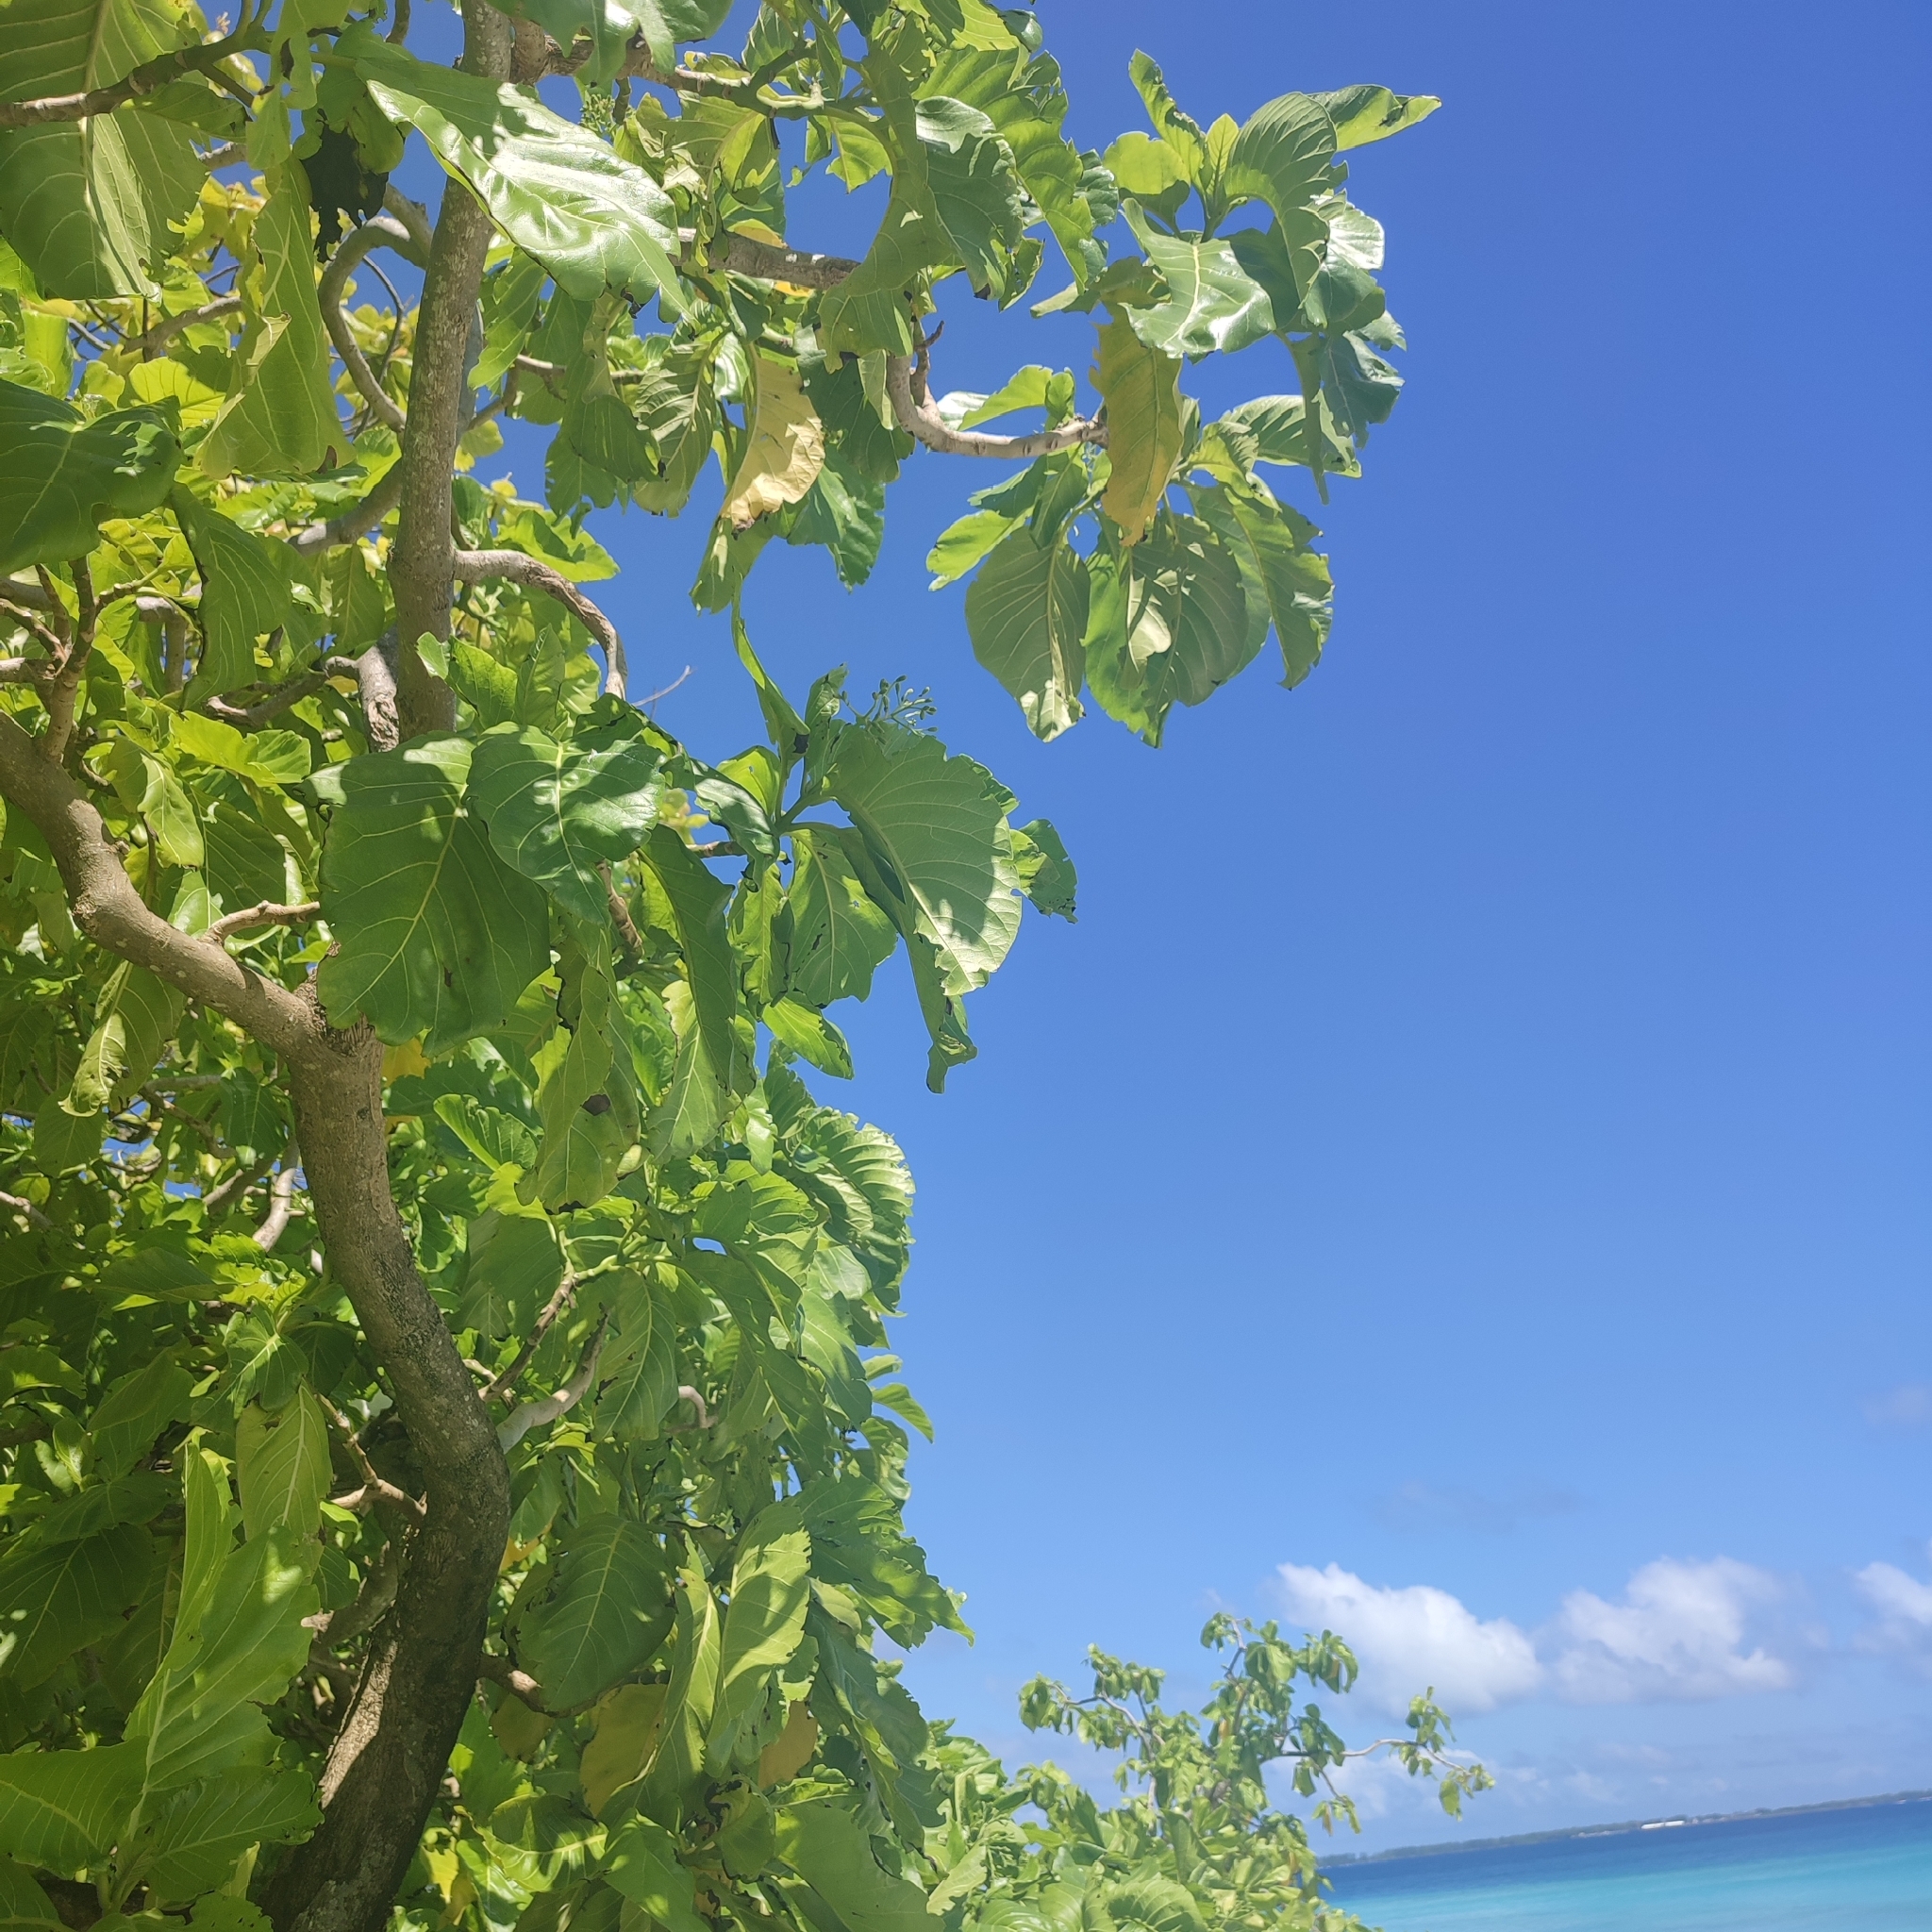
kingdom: Plantae
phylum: Tracheophyta
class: Magnoliopsida
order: Caryophyllales
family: Nyctaginaceae
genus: Ceodes
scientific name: Ceodes
